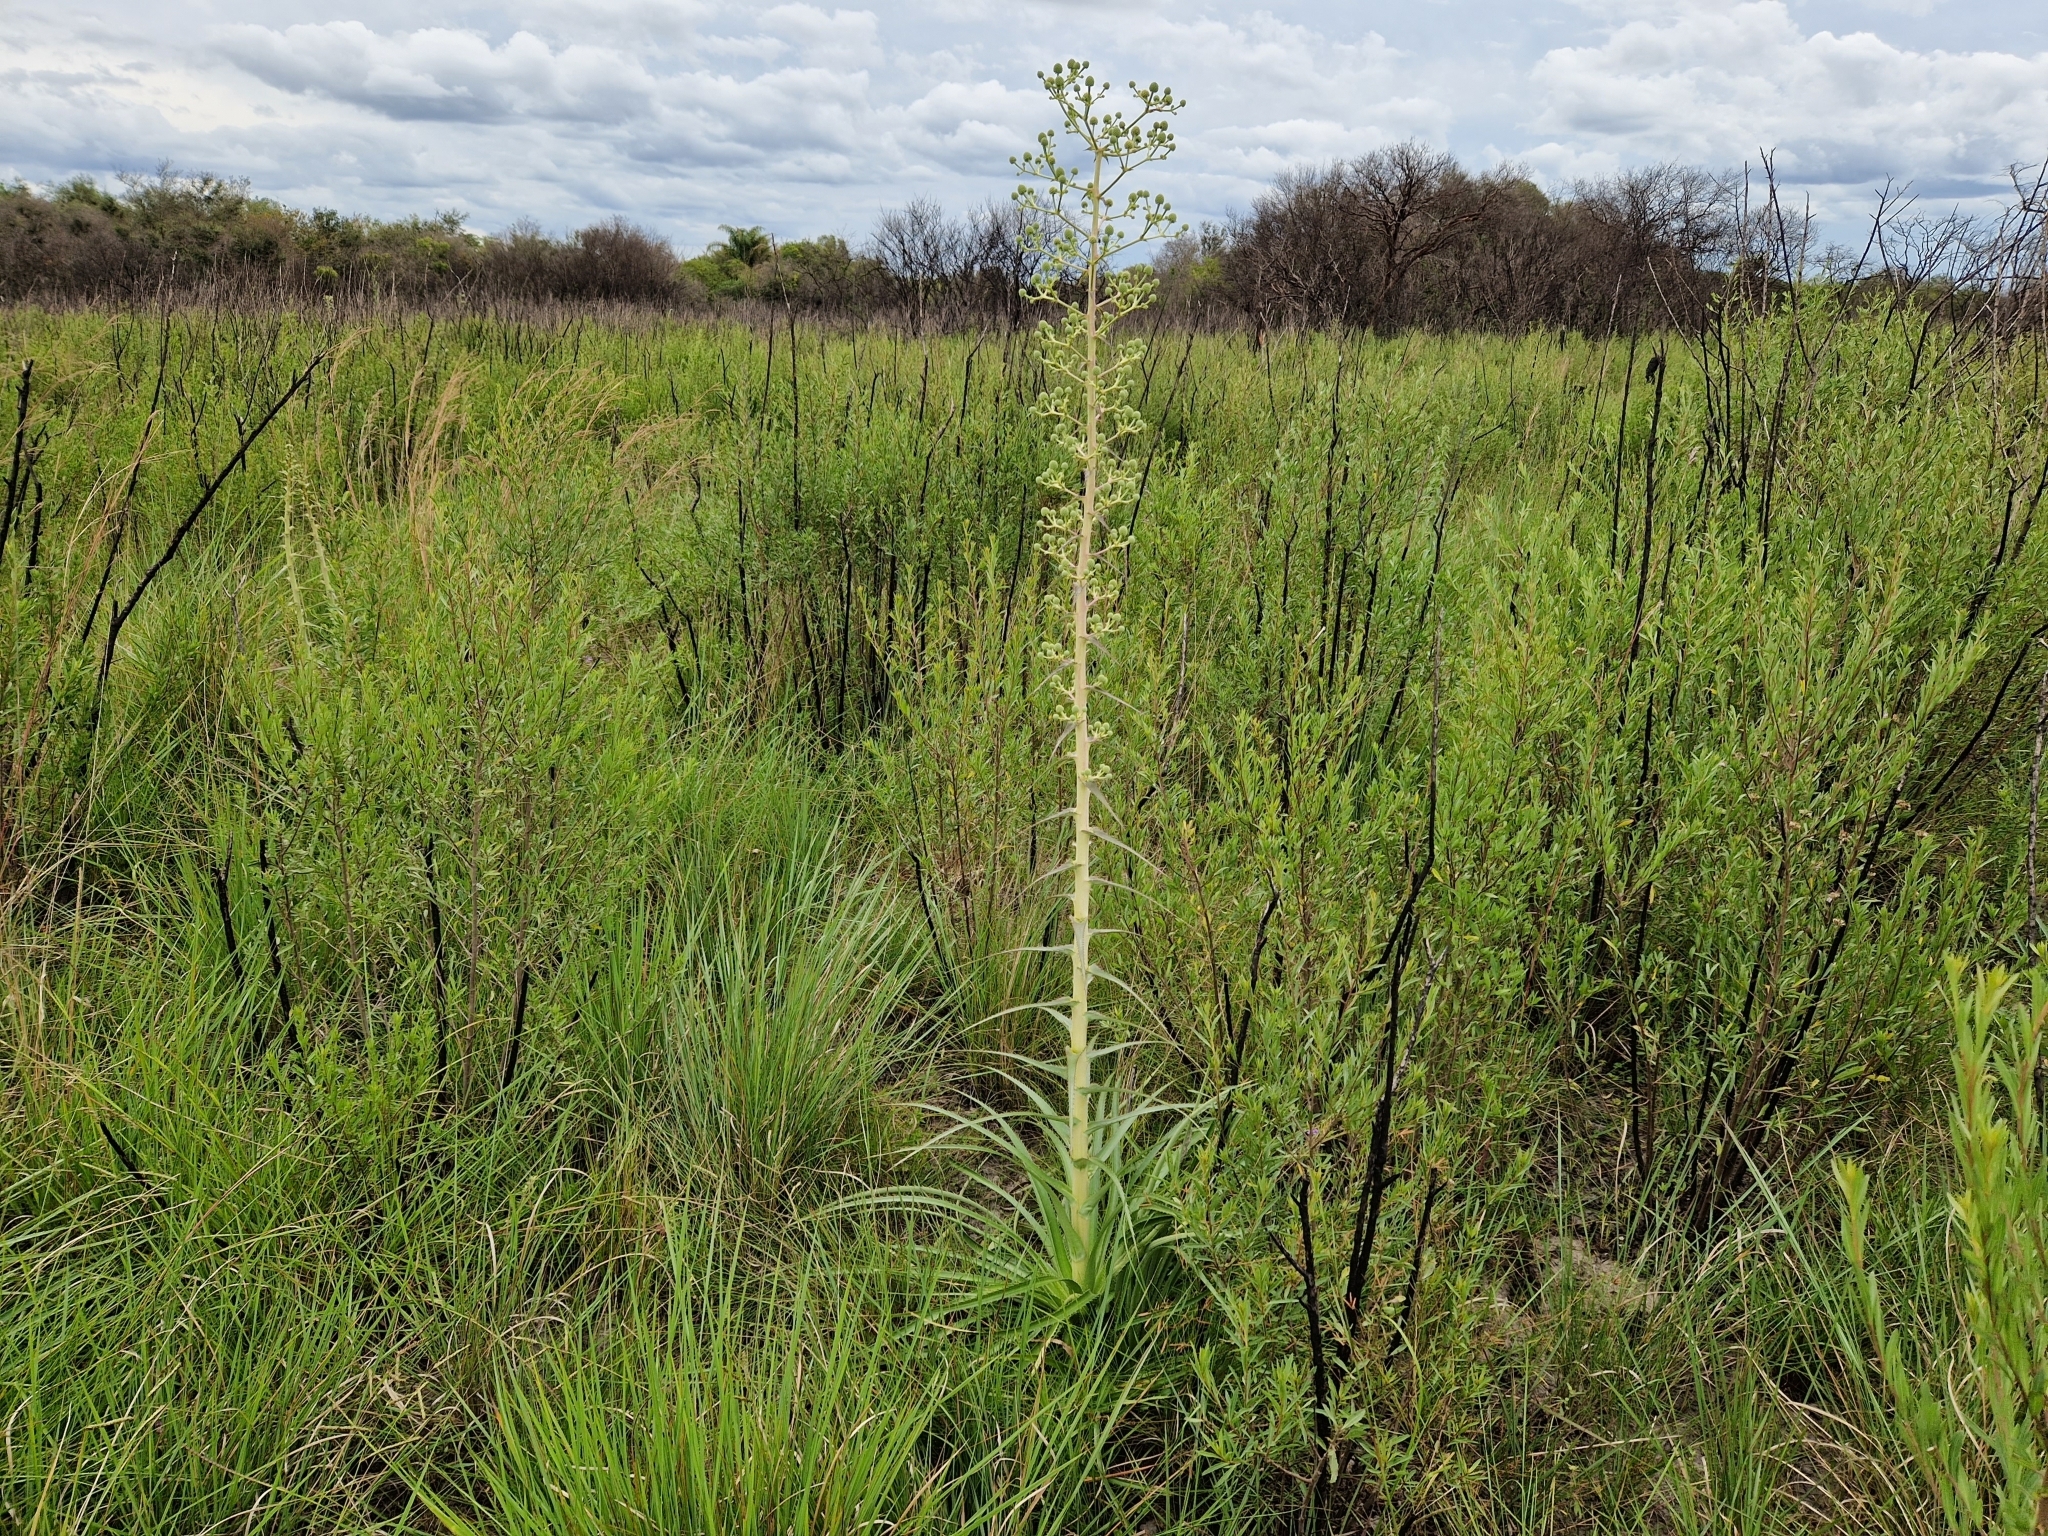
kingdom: Plantae
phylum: Tracheophyta
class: Magnoliopsida
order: Apiales
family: Apiaceae
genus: Eryngium
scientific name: Eryngium horridum
